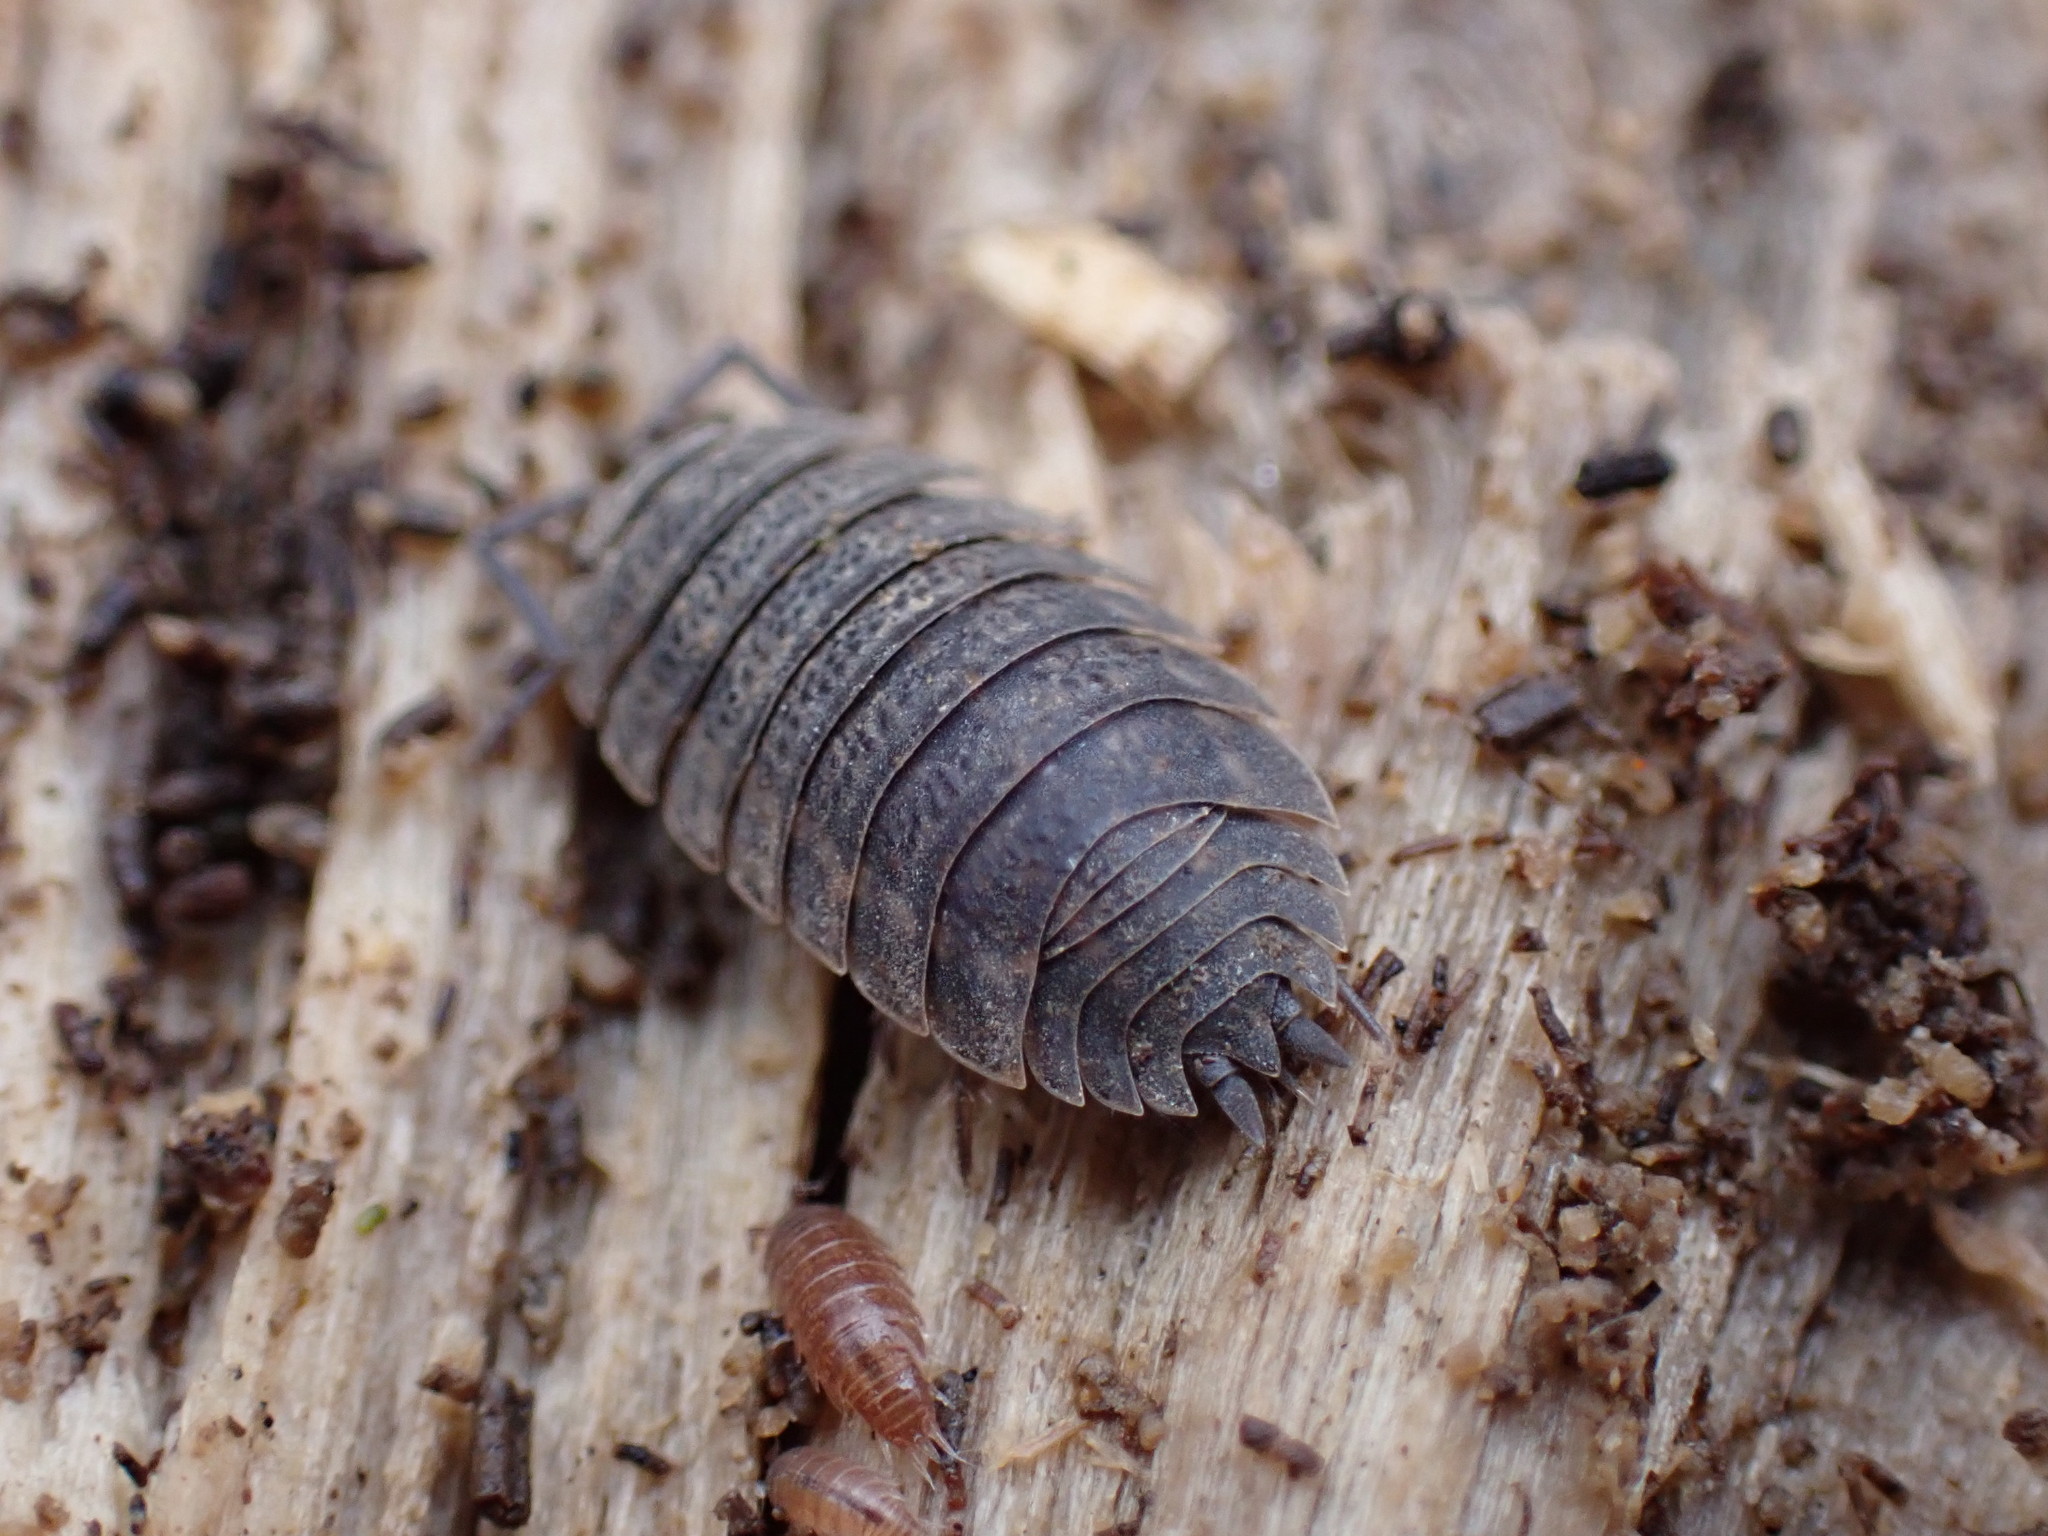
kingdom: Animalia
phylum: Arthropoda
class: Malacostraca
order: Isopoda
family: Trachelipodidae
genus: Trachelipus
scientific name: Trachelipus rathkii
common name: Isopod
